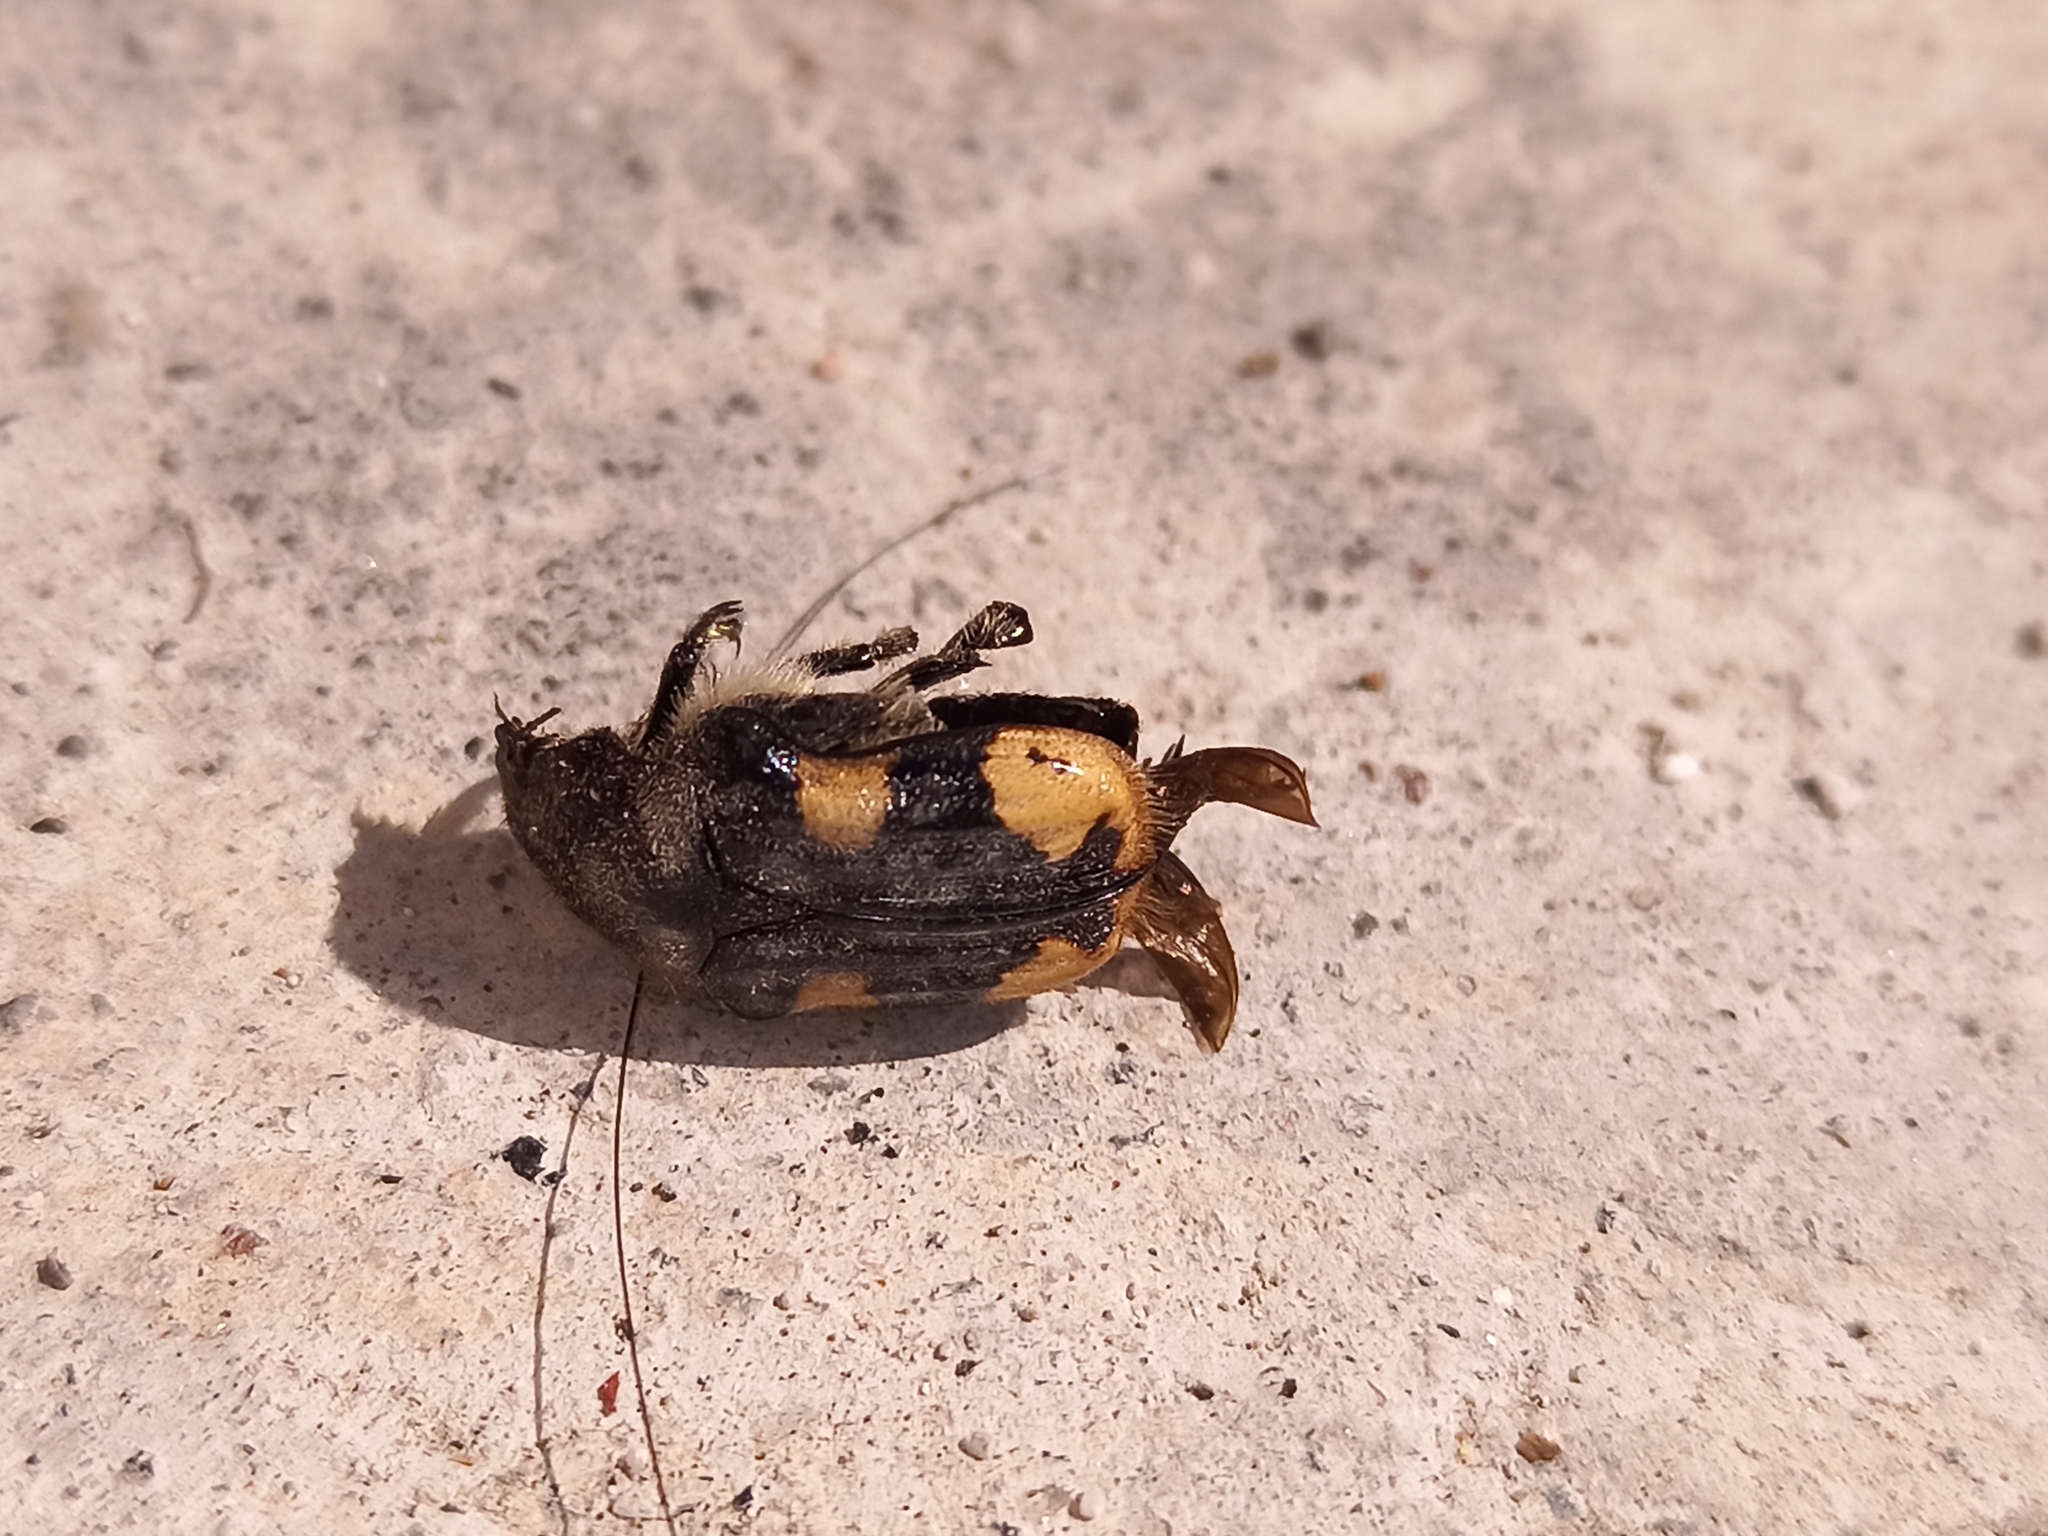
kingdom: Animalia
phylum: Arthropoda
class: Insecta
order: Coleoptera
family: Scarabaeidae
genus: Euphoria
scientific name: Euphoria basalis
